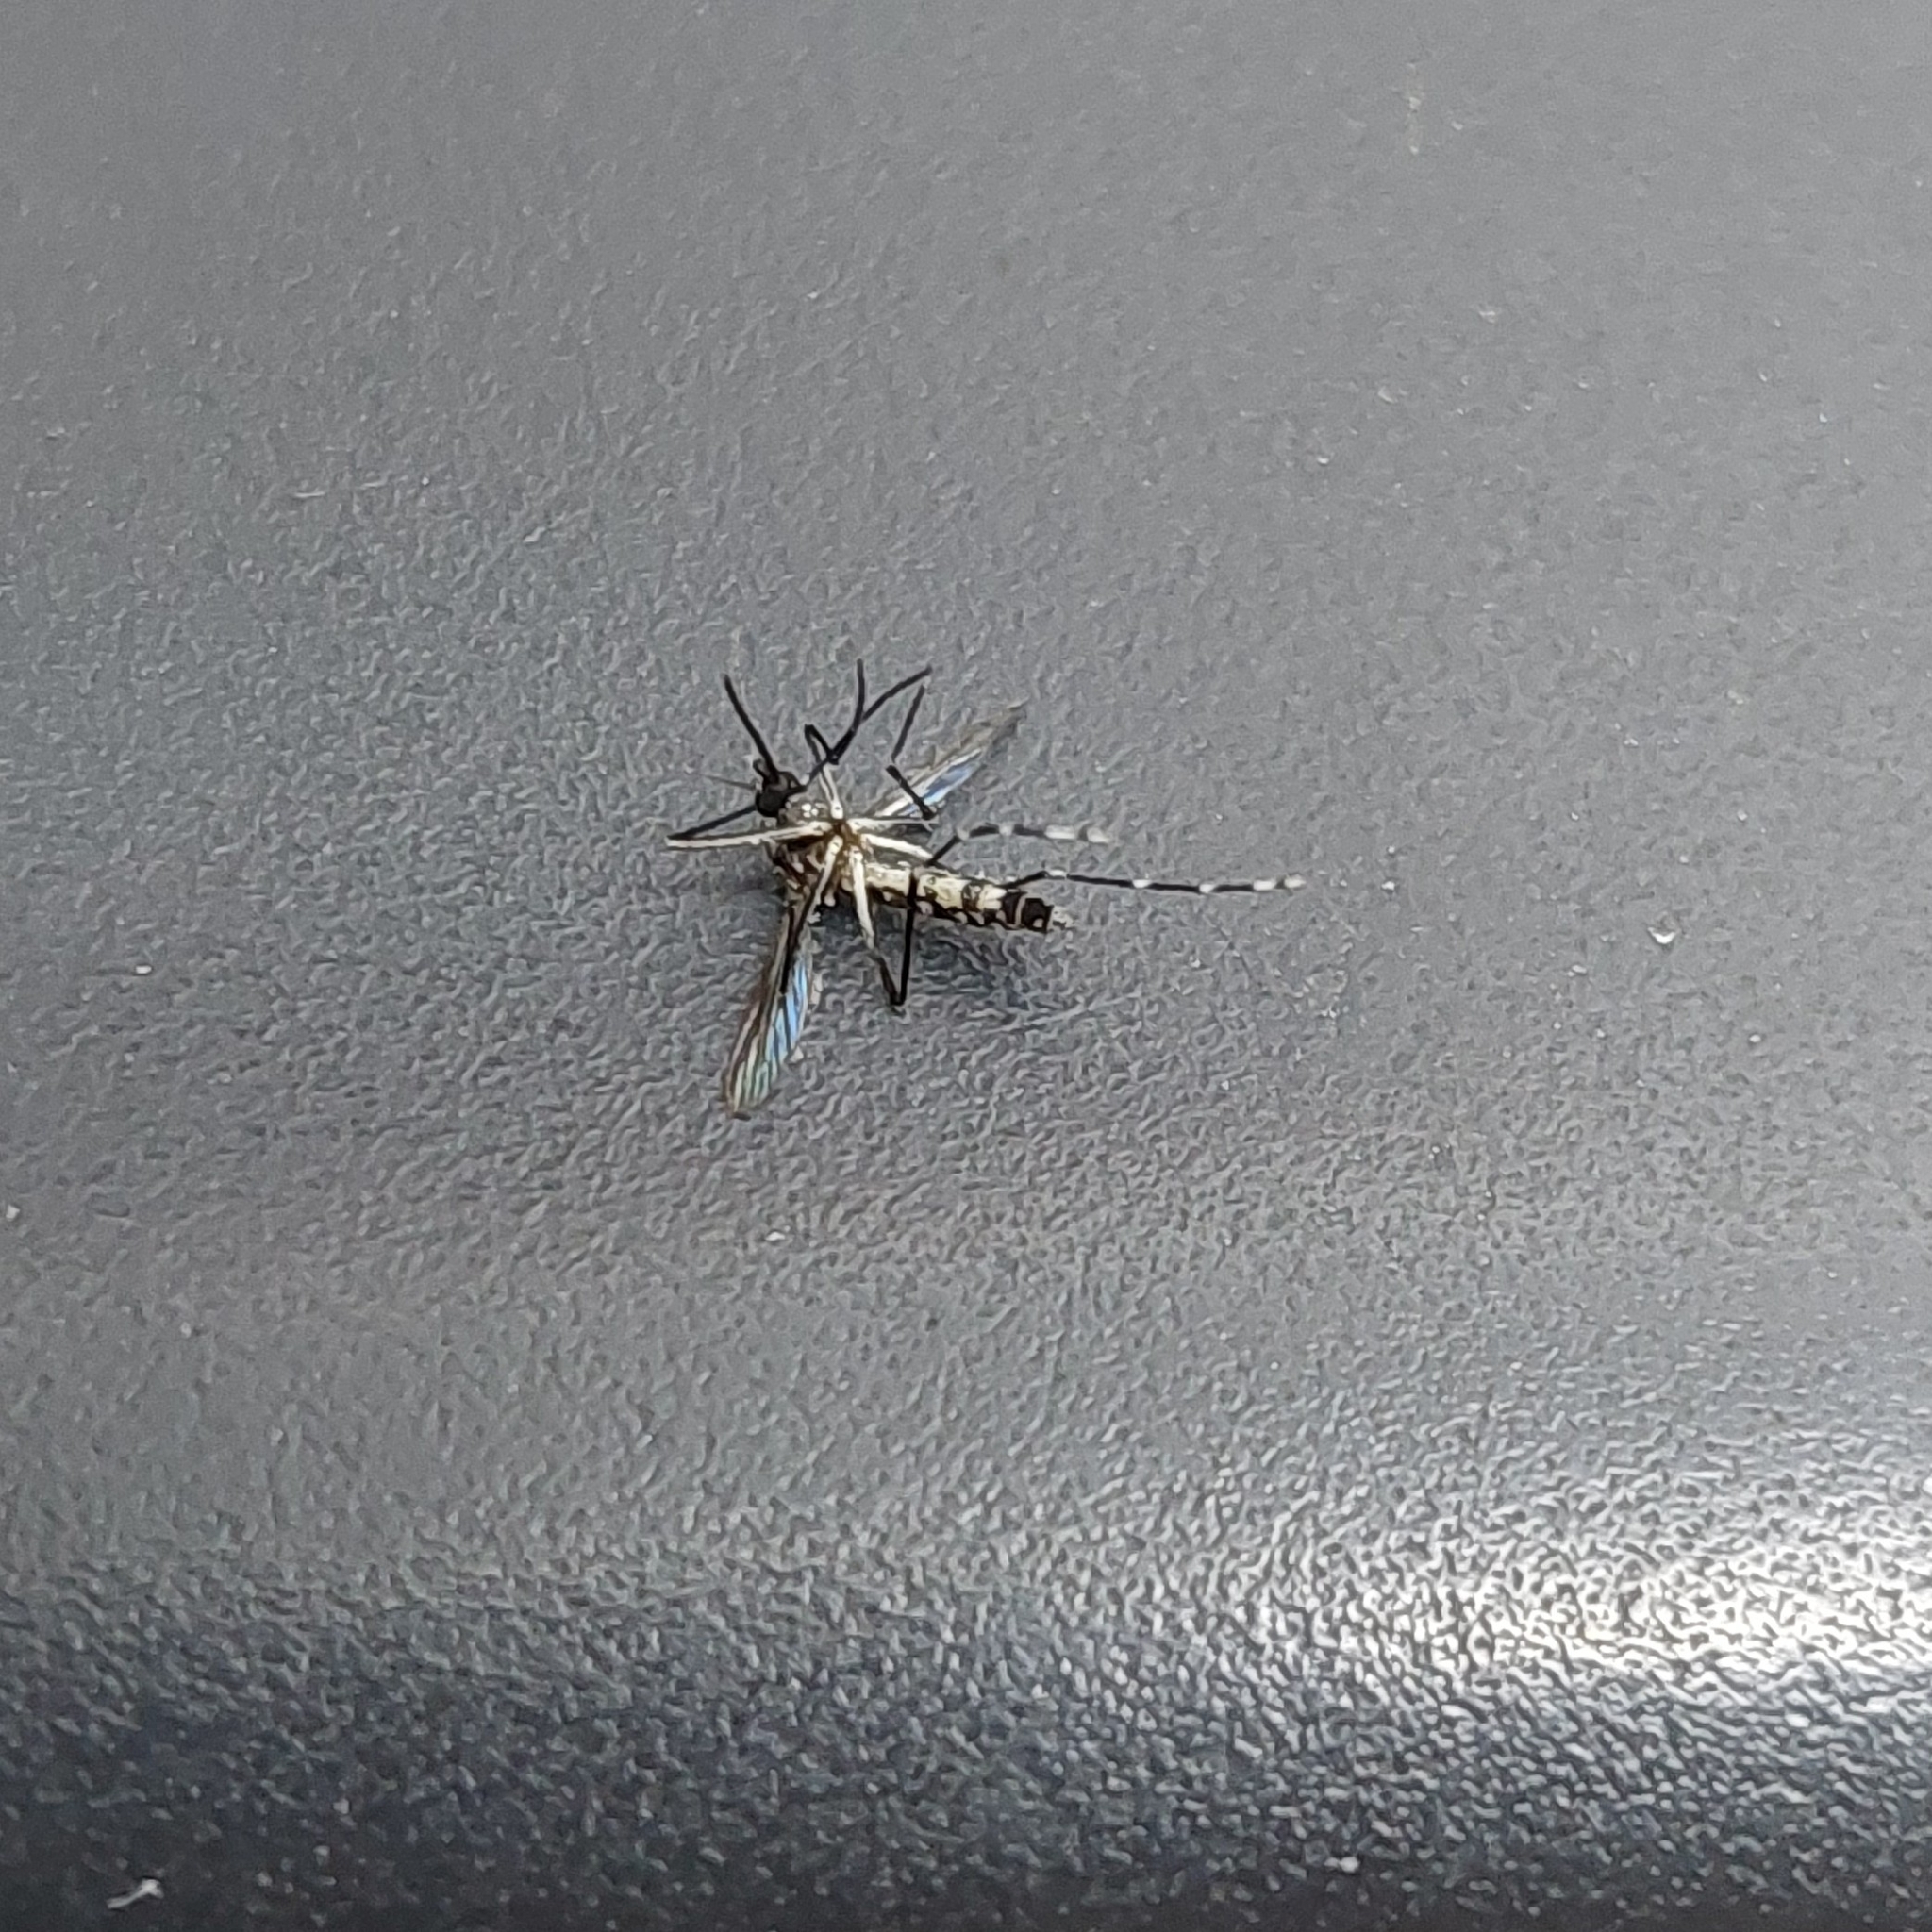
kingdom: Animalia
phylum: Arthropoda
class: Insecta
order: Diptera
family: Culicidae
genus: Aedes
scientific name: Aedes aegypti
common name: Yellow fever mosquito
